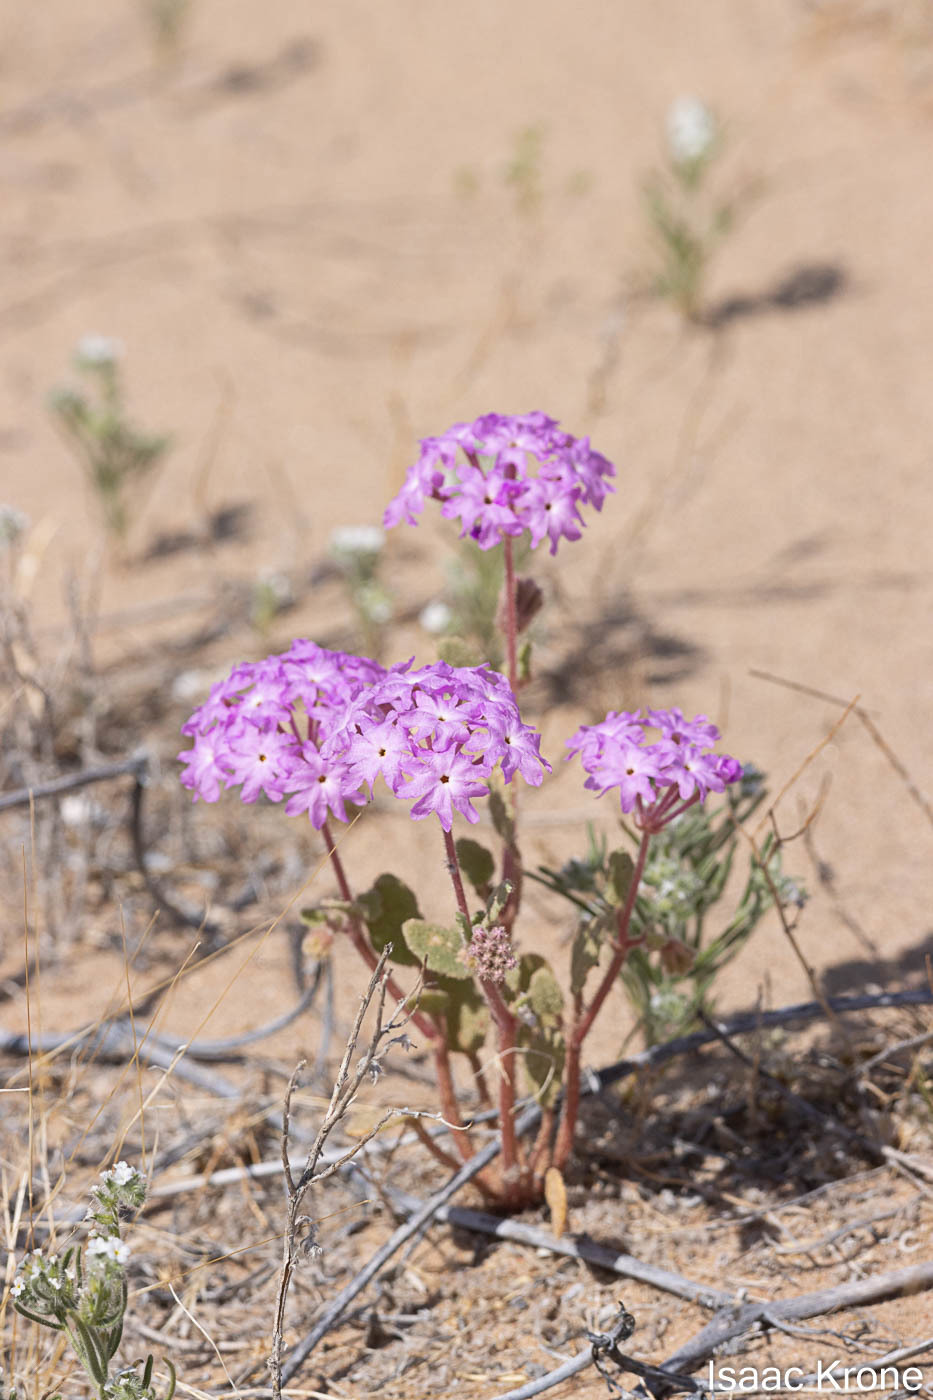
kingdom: Plantae
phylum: Tracheophyta
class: Magnoliopsida
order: Caryophyllales
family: Nyctaginaceae
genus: Abronia
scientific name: Abronia villosa
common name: Desert sand-verbena
